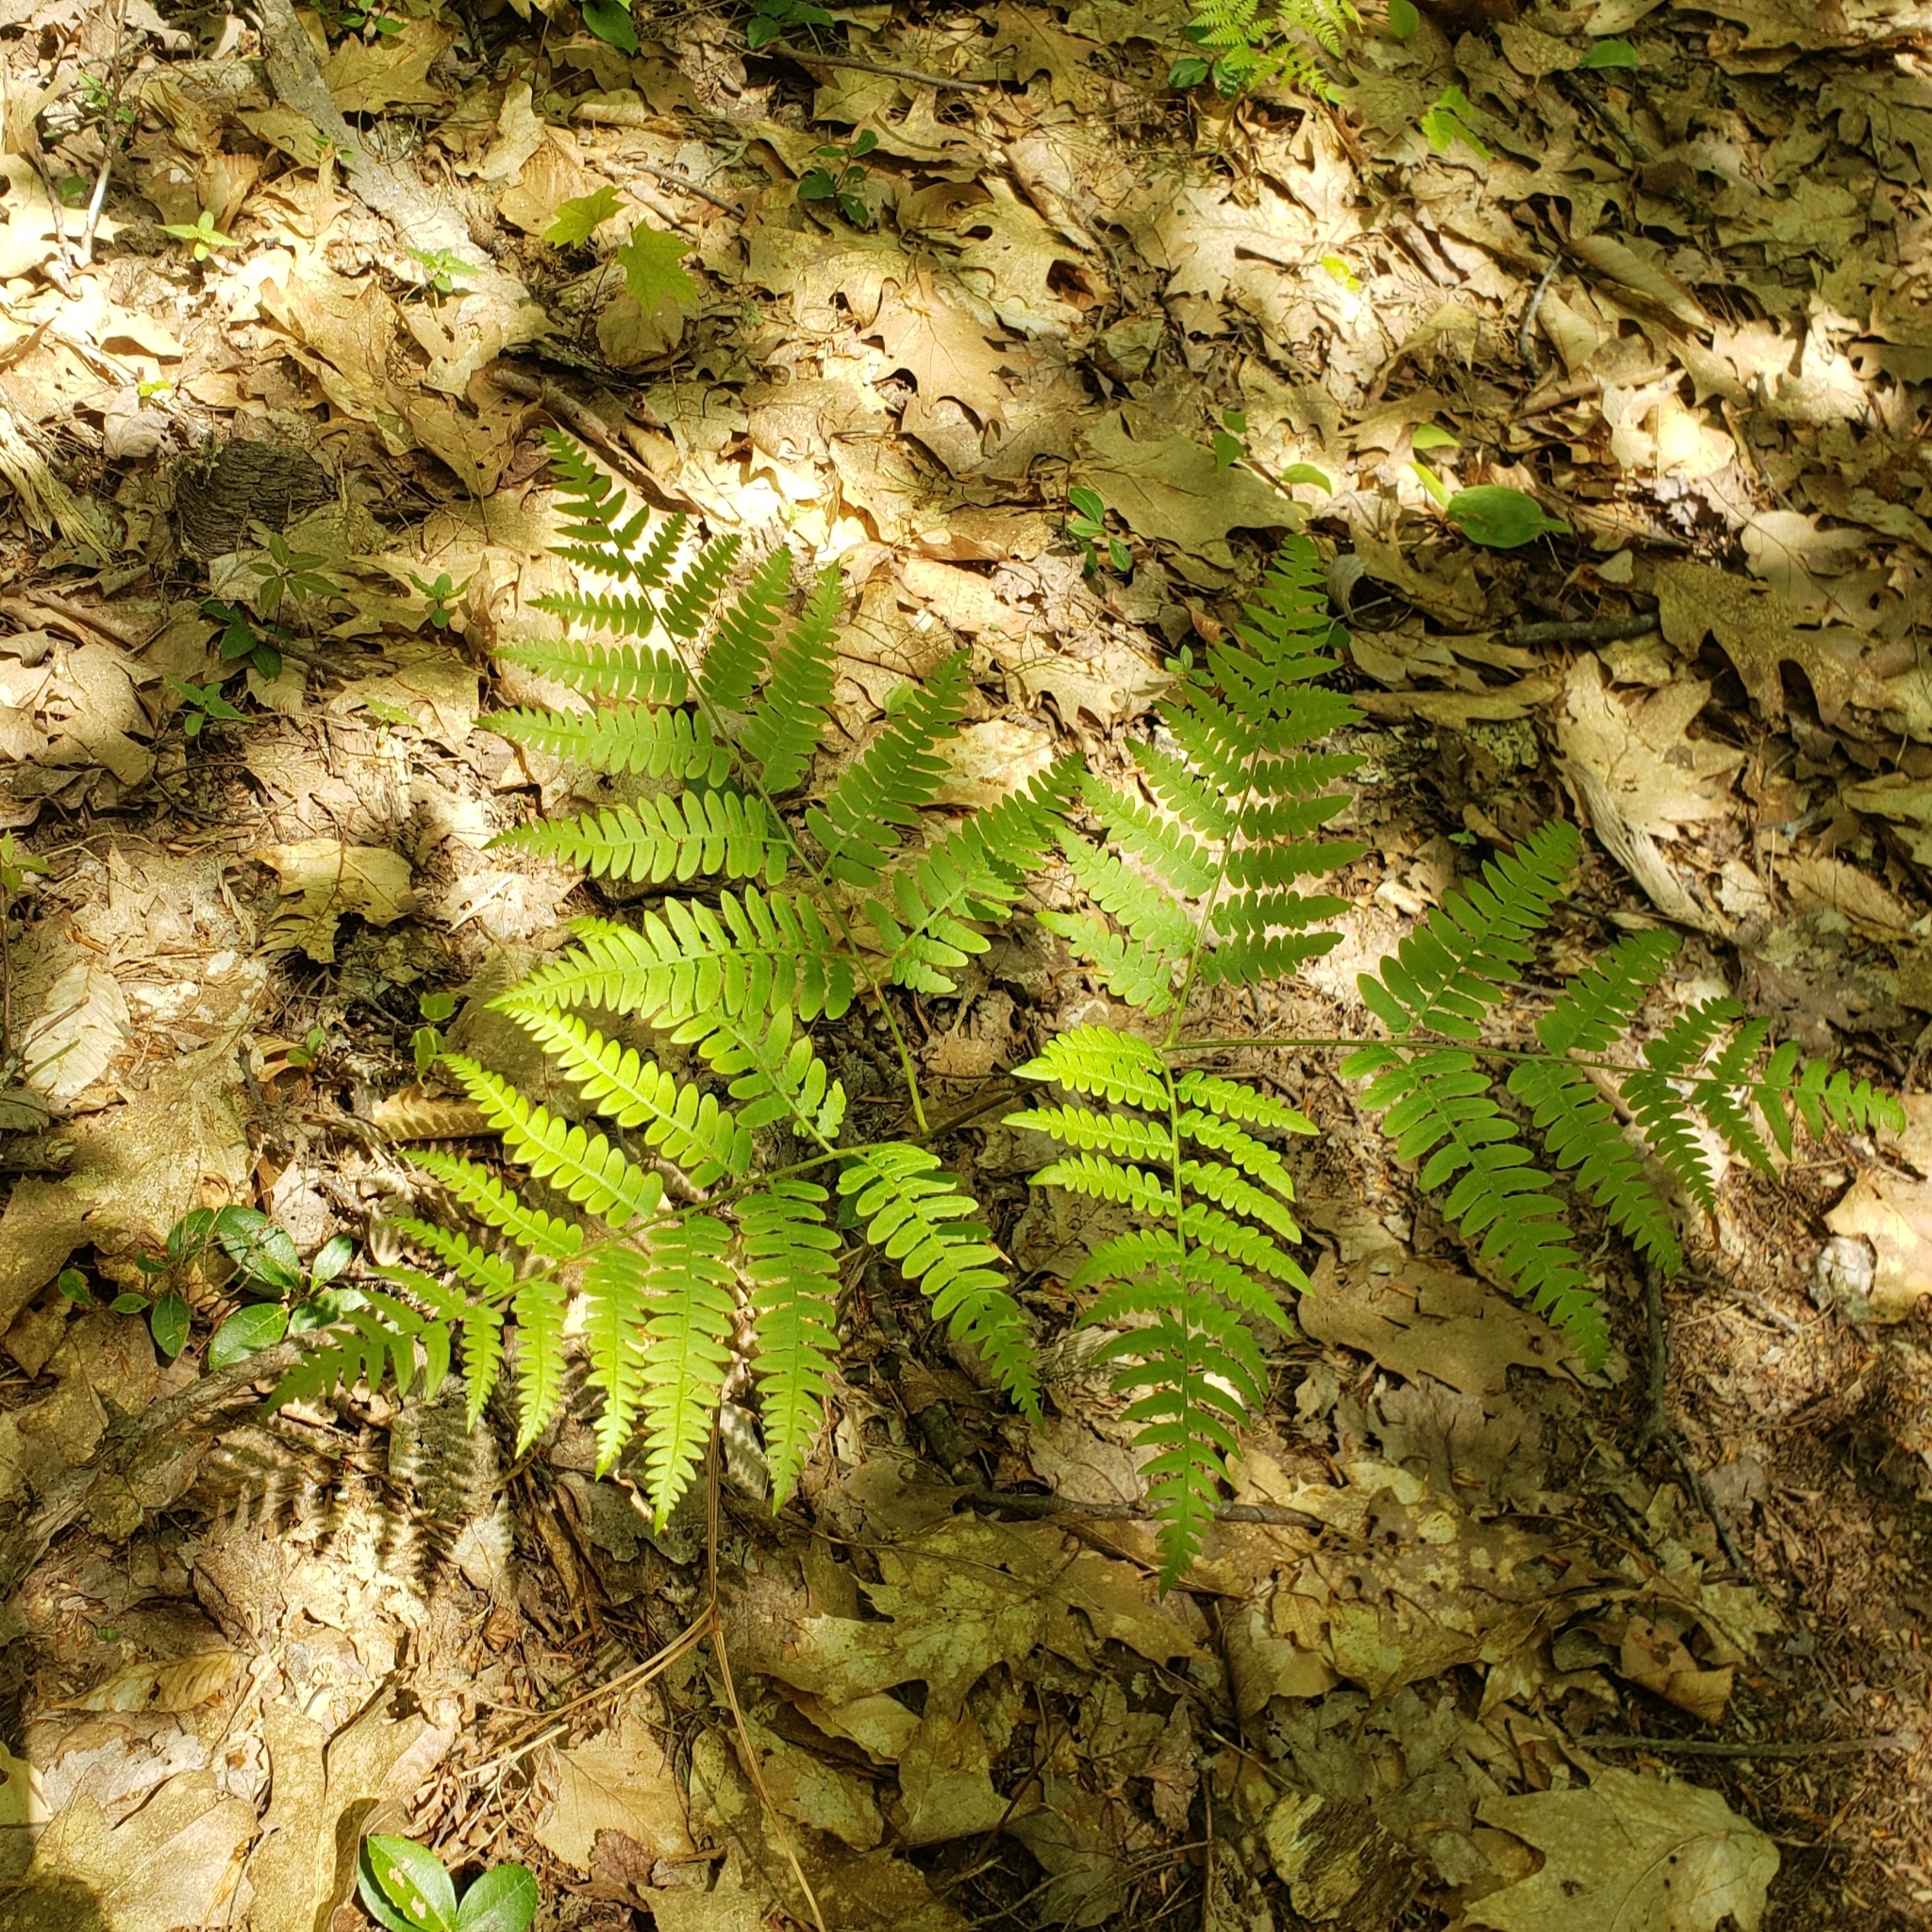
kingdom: Plantae
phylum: Tracheophyta
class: Polypodiopsida
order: Polypodiales
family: Dennstaedtiaceae
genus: Pteridium
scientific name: Pteridium aquilinum
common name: Bracken
